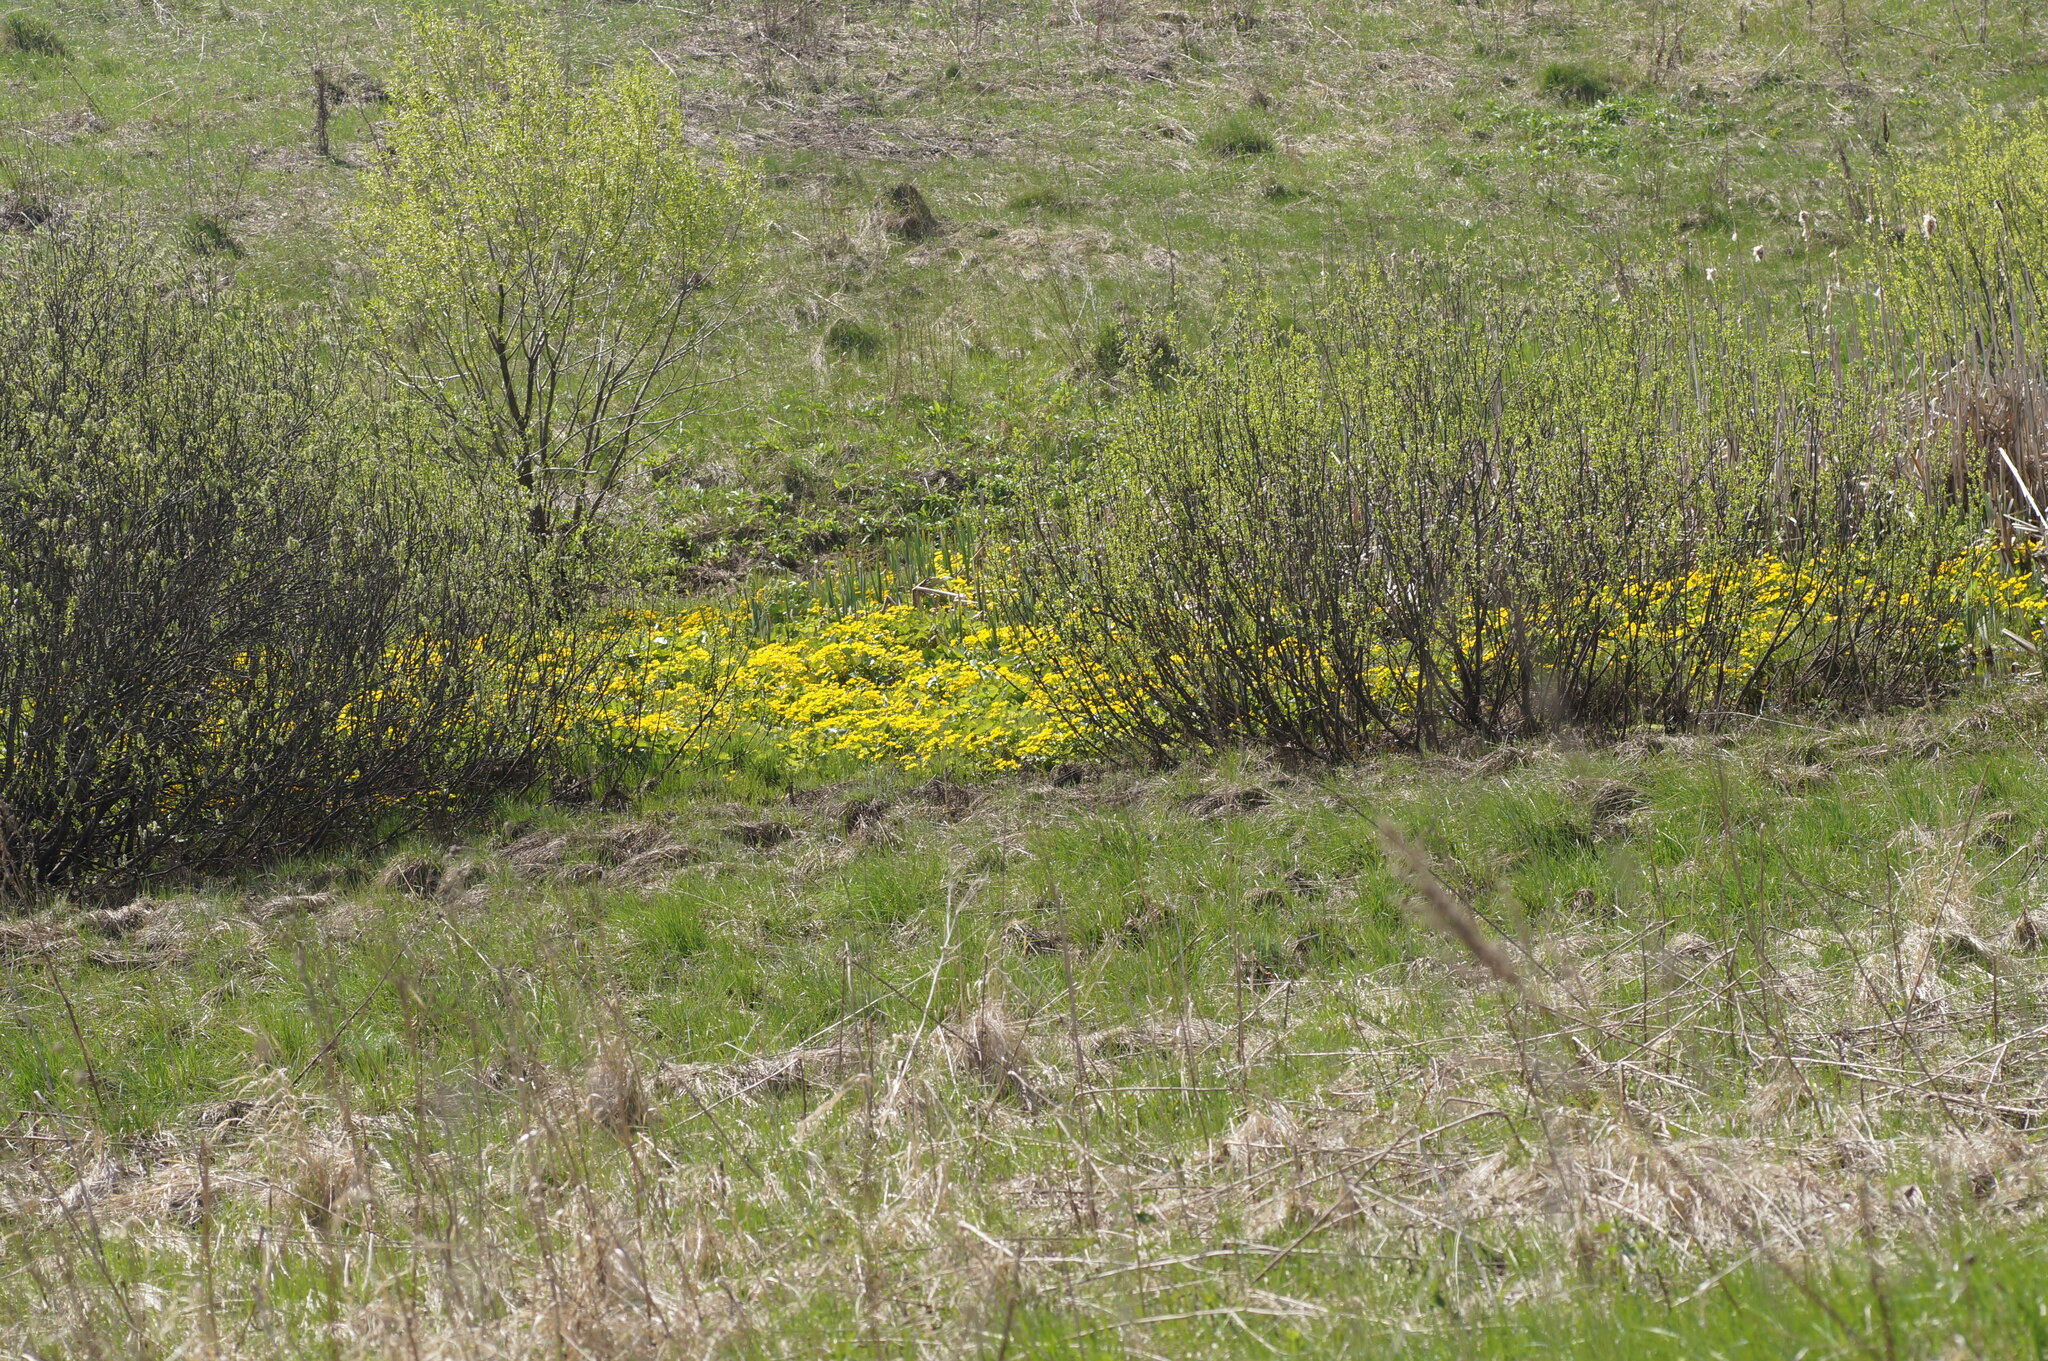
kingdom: Plantae
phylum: Tracheophyta
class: Magnoliopsida
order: Ranunculales
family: Ranunculaceae
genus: Caltha
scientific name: Caltha palustris
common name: Marsh marigold
